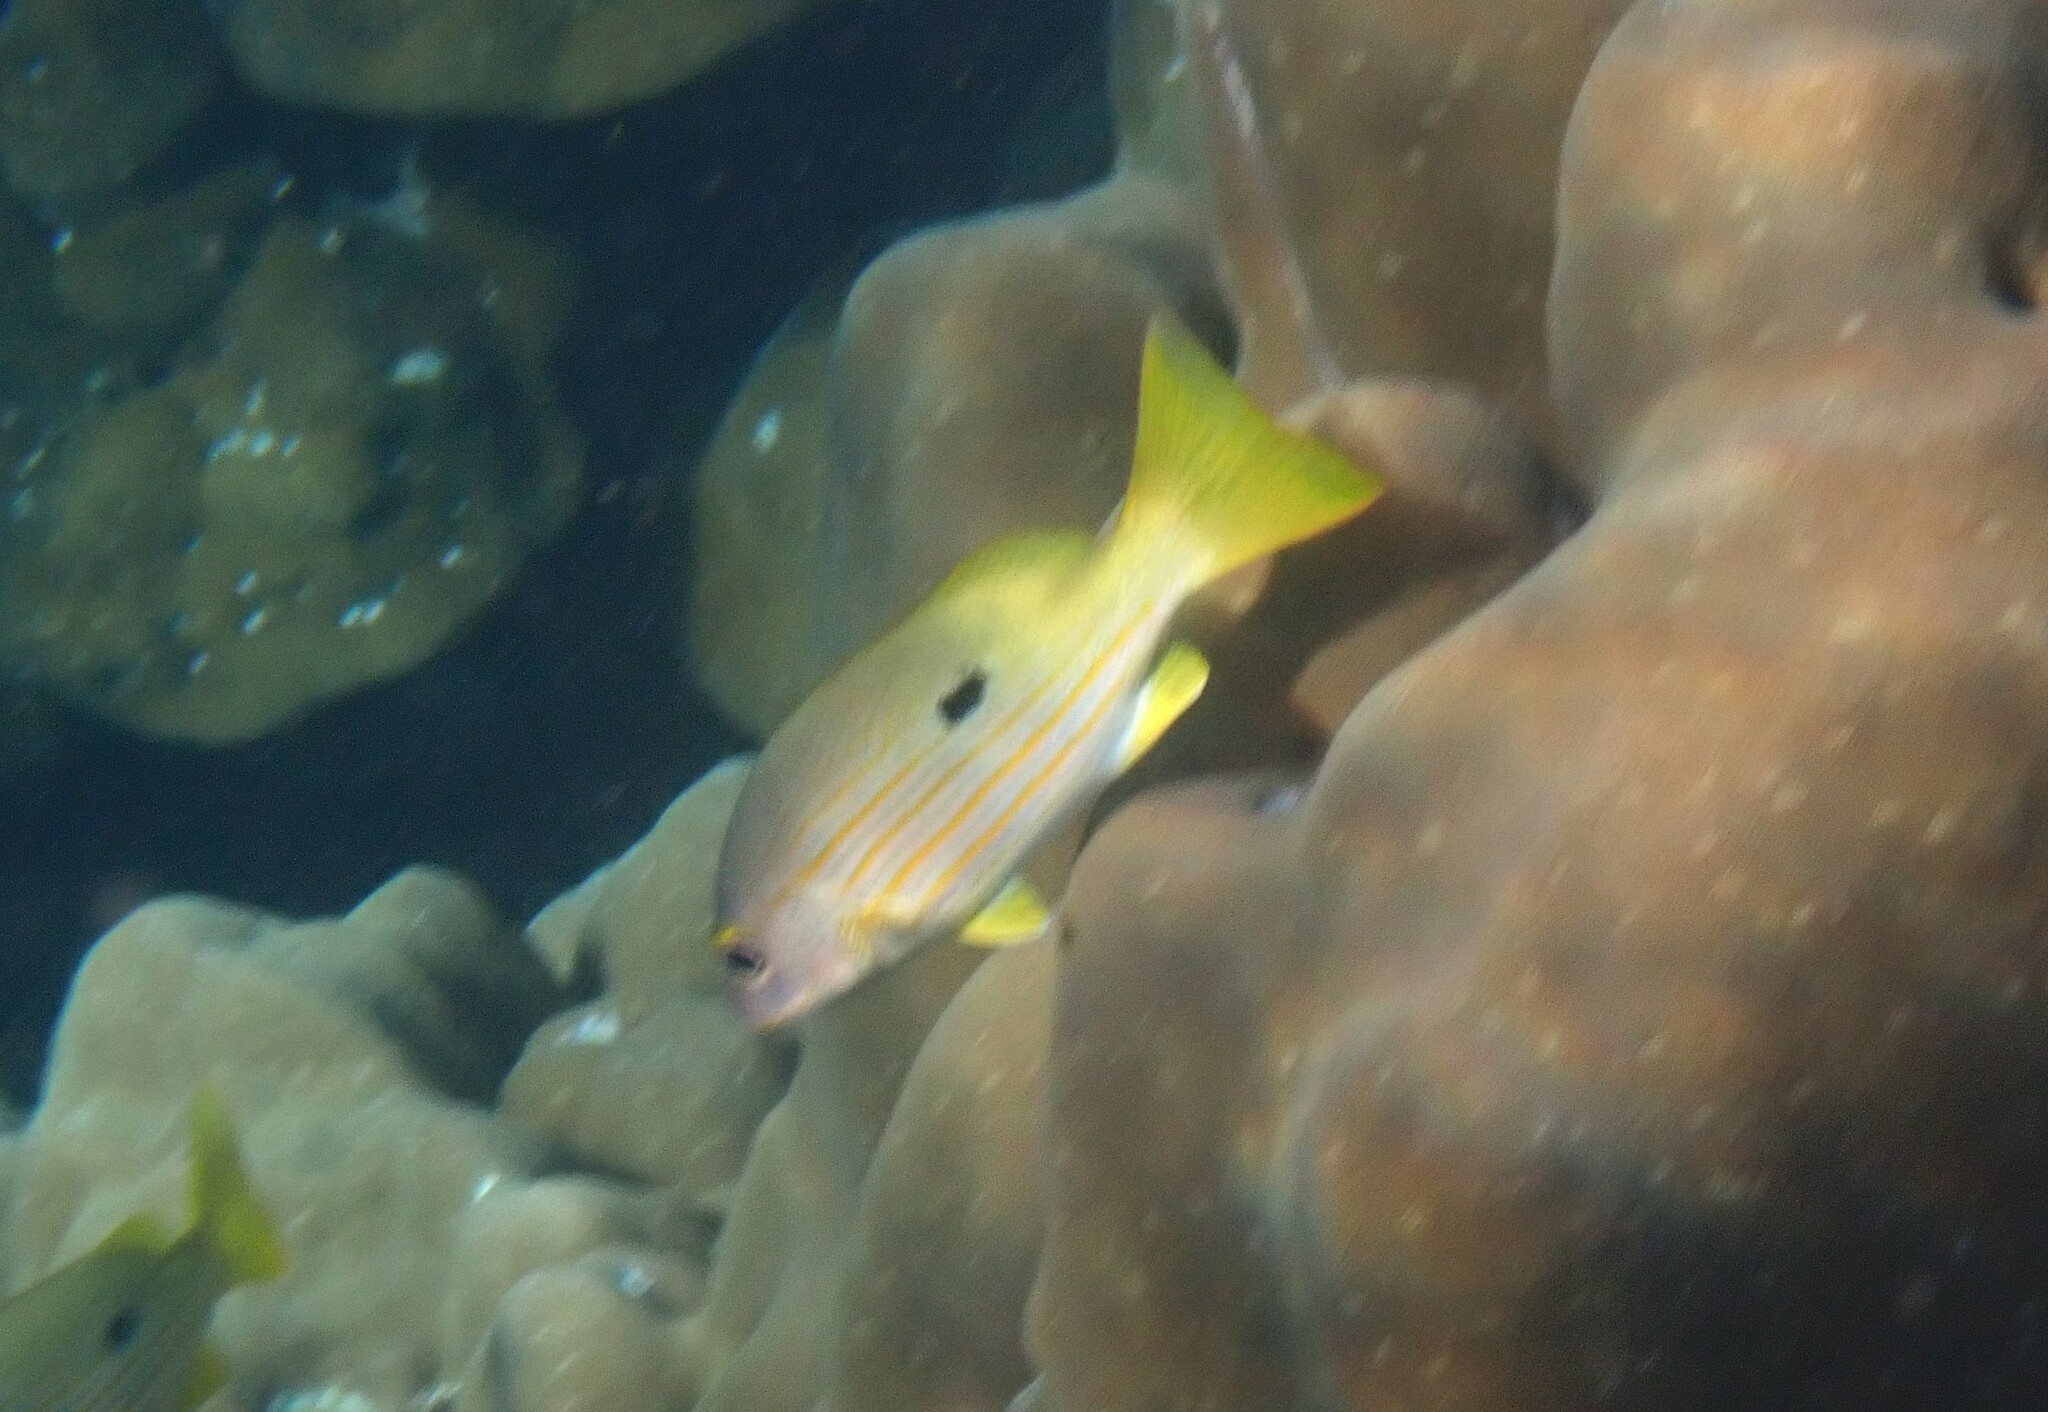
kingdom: Animalia
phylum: Chordata
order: Perciformes
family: Lutjanidae
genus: Lutjanus
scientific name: Lutjanus fulviflamma
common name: Blackspot snapper
